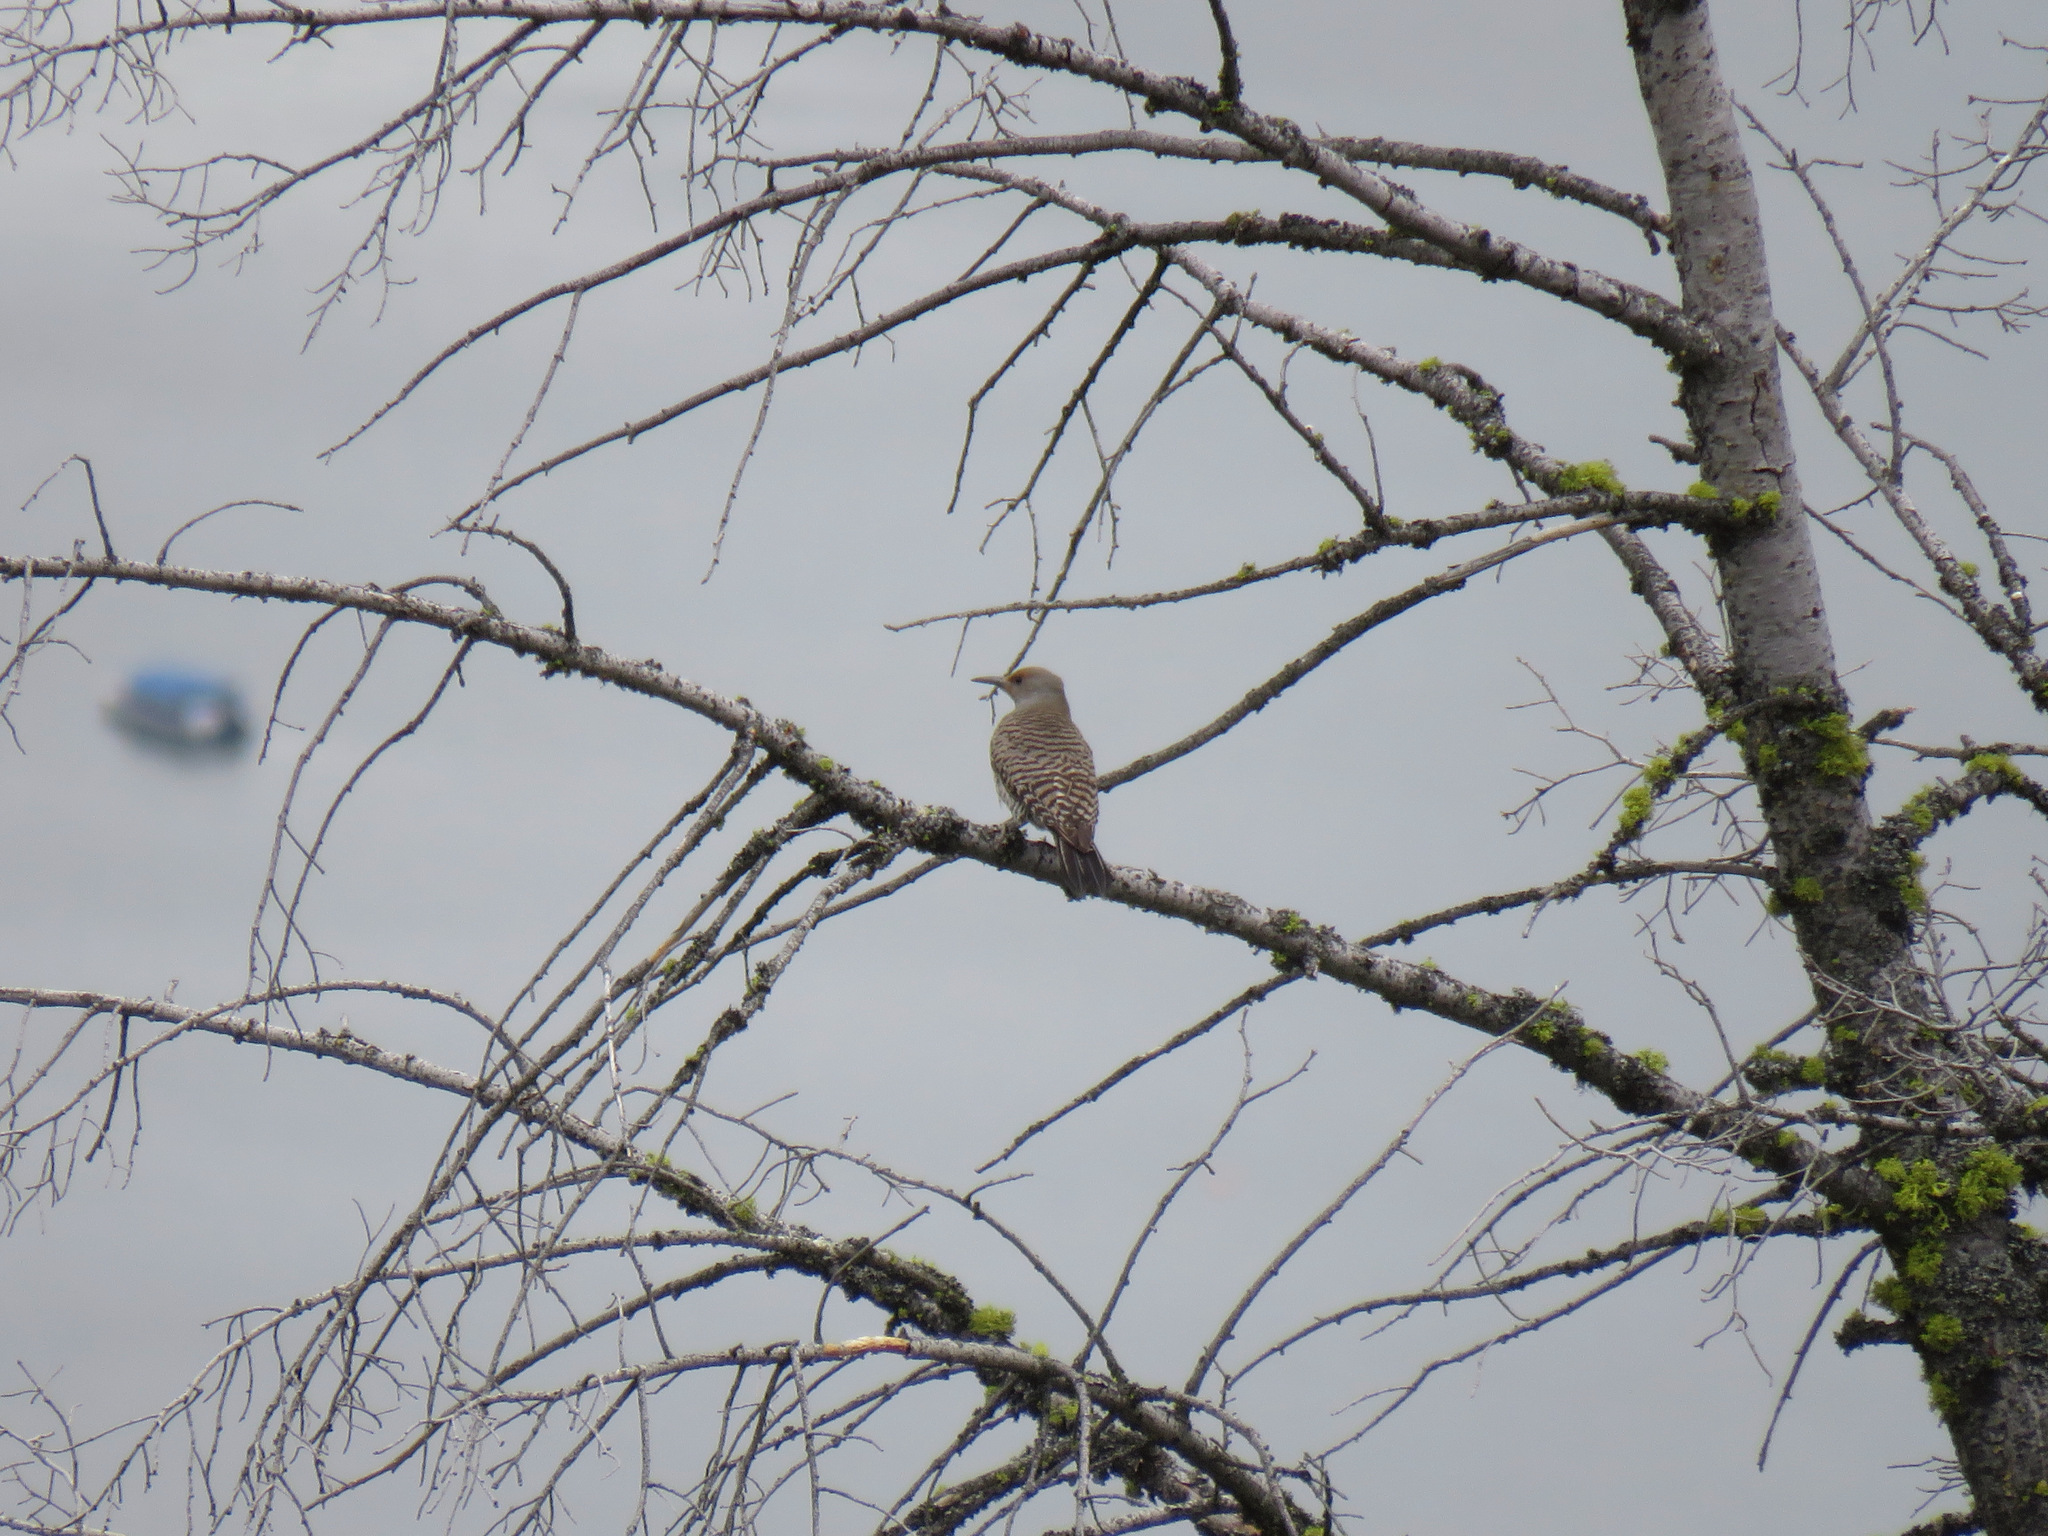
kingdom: Animalia
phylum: Chordata
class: Aves
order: Piciformes
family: Picidae
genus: Colaptes
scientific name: Colaptes auratus
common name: Northern flicker
